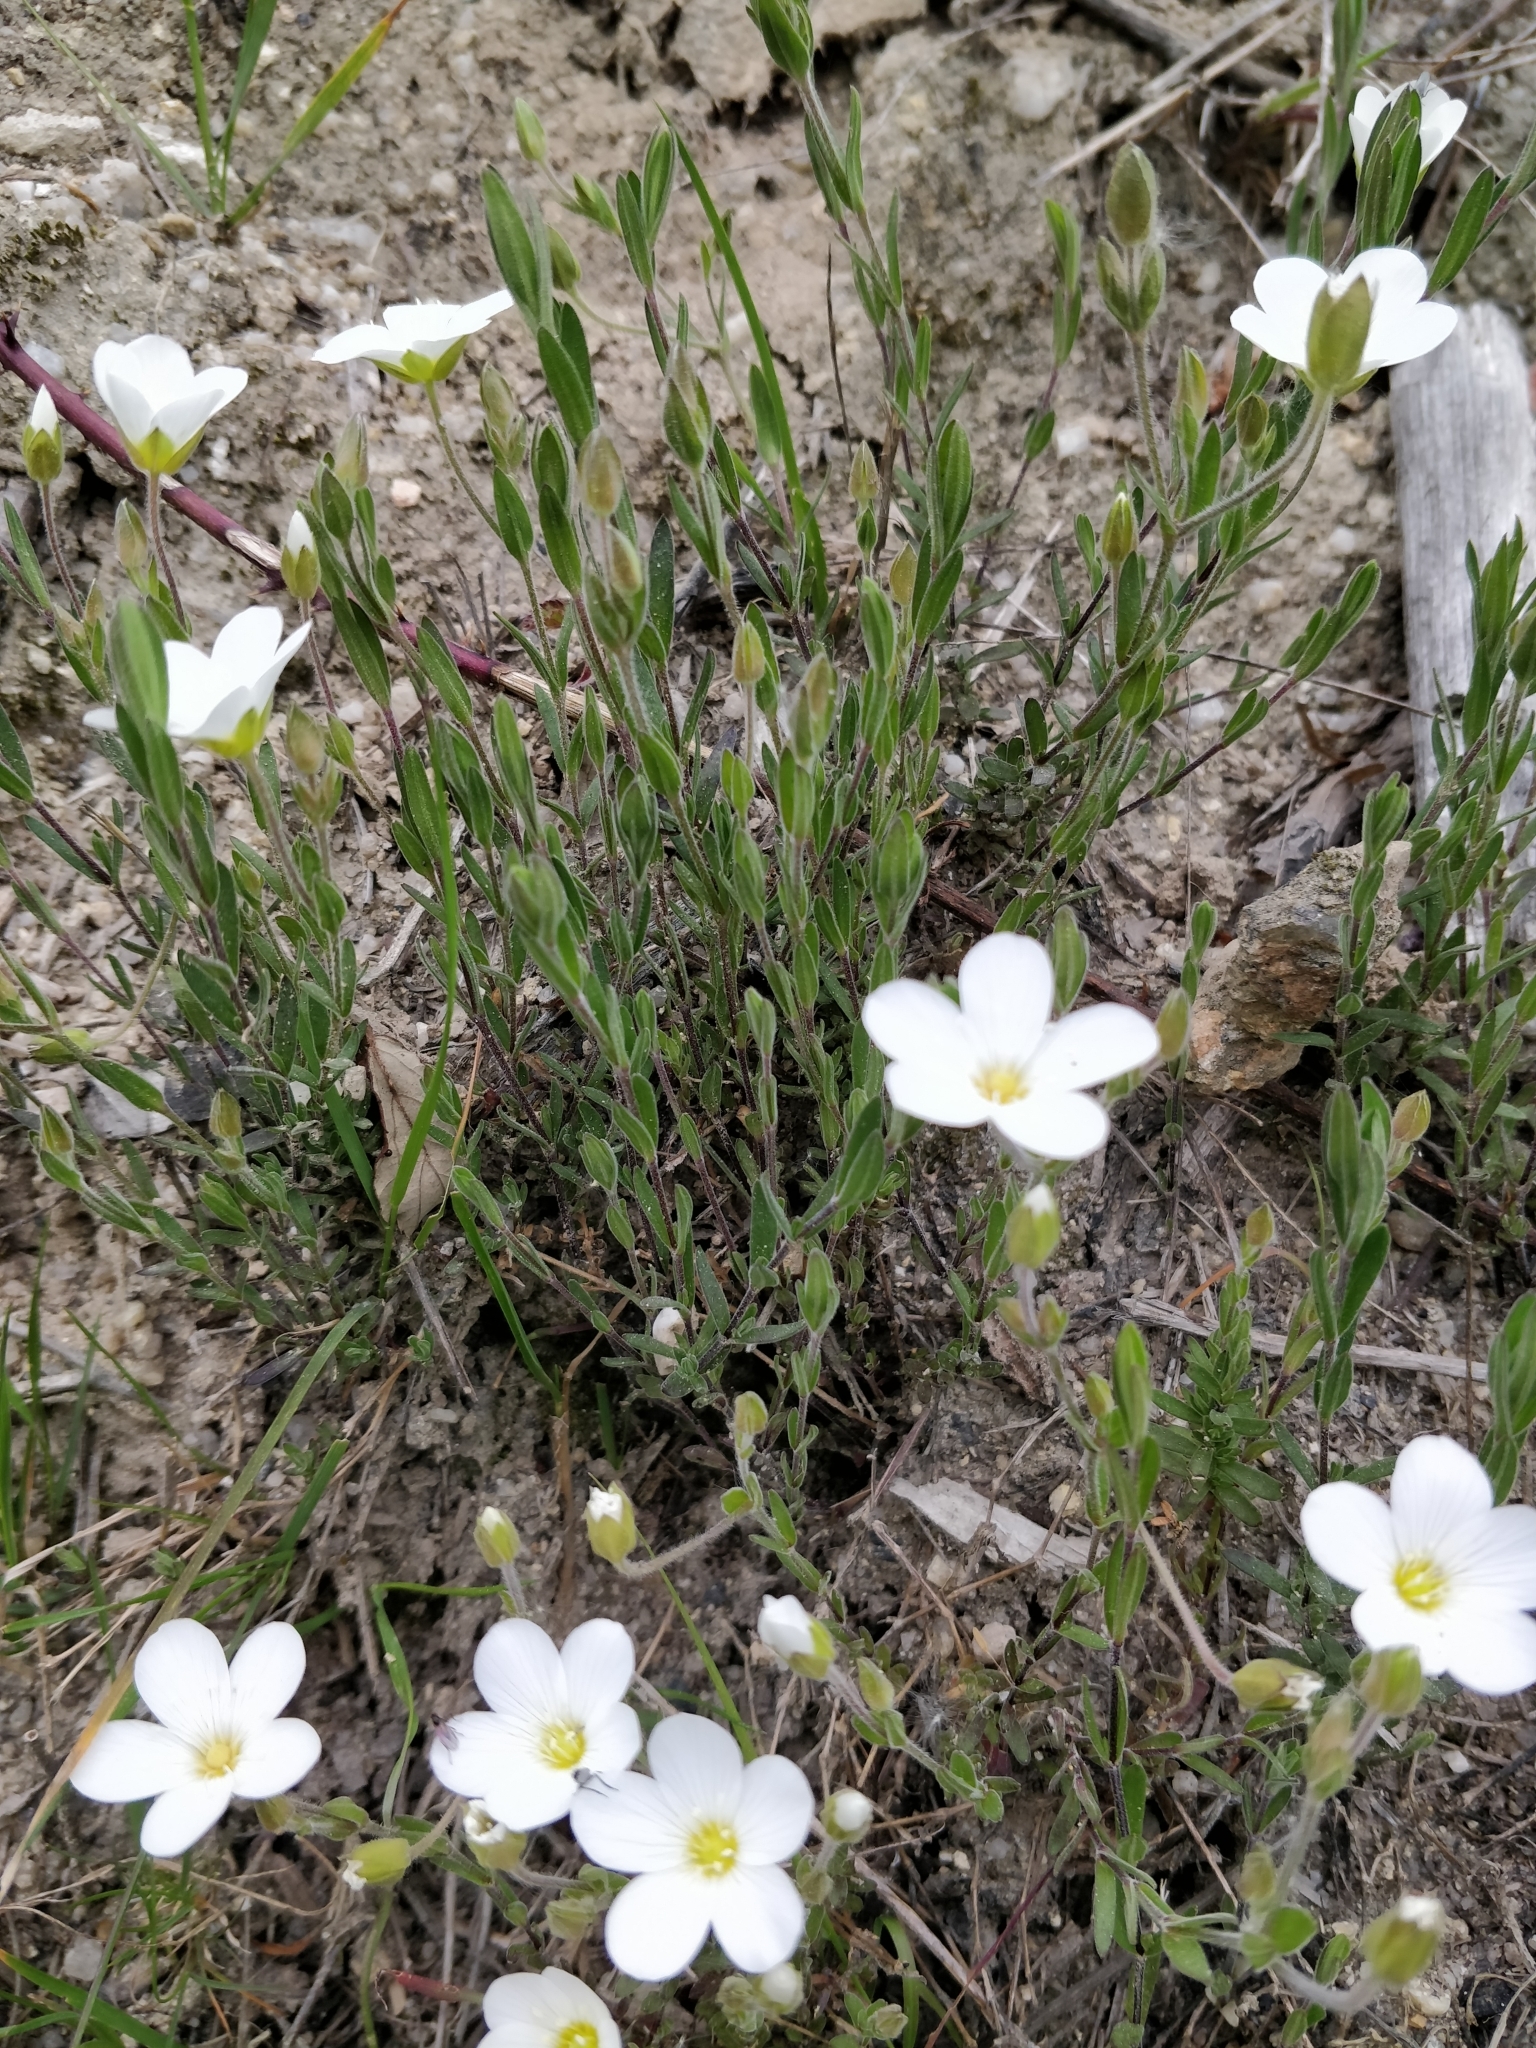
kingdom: Plantae
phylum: Tracheophyta
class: Magnoliopsida
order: Caryophyllales
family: Caryophyllaceae
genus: Arenaria
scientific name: Arenaria montana
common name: Mountain sandwort
